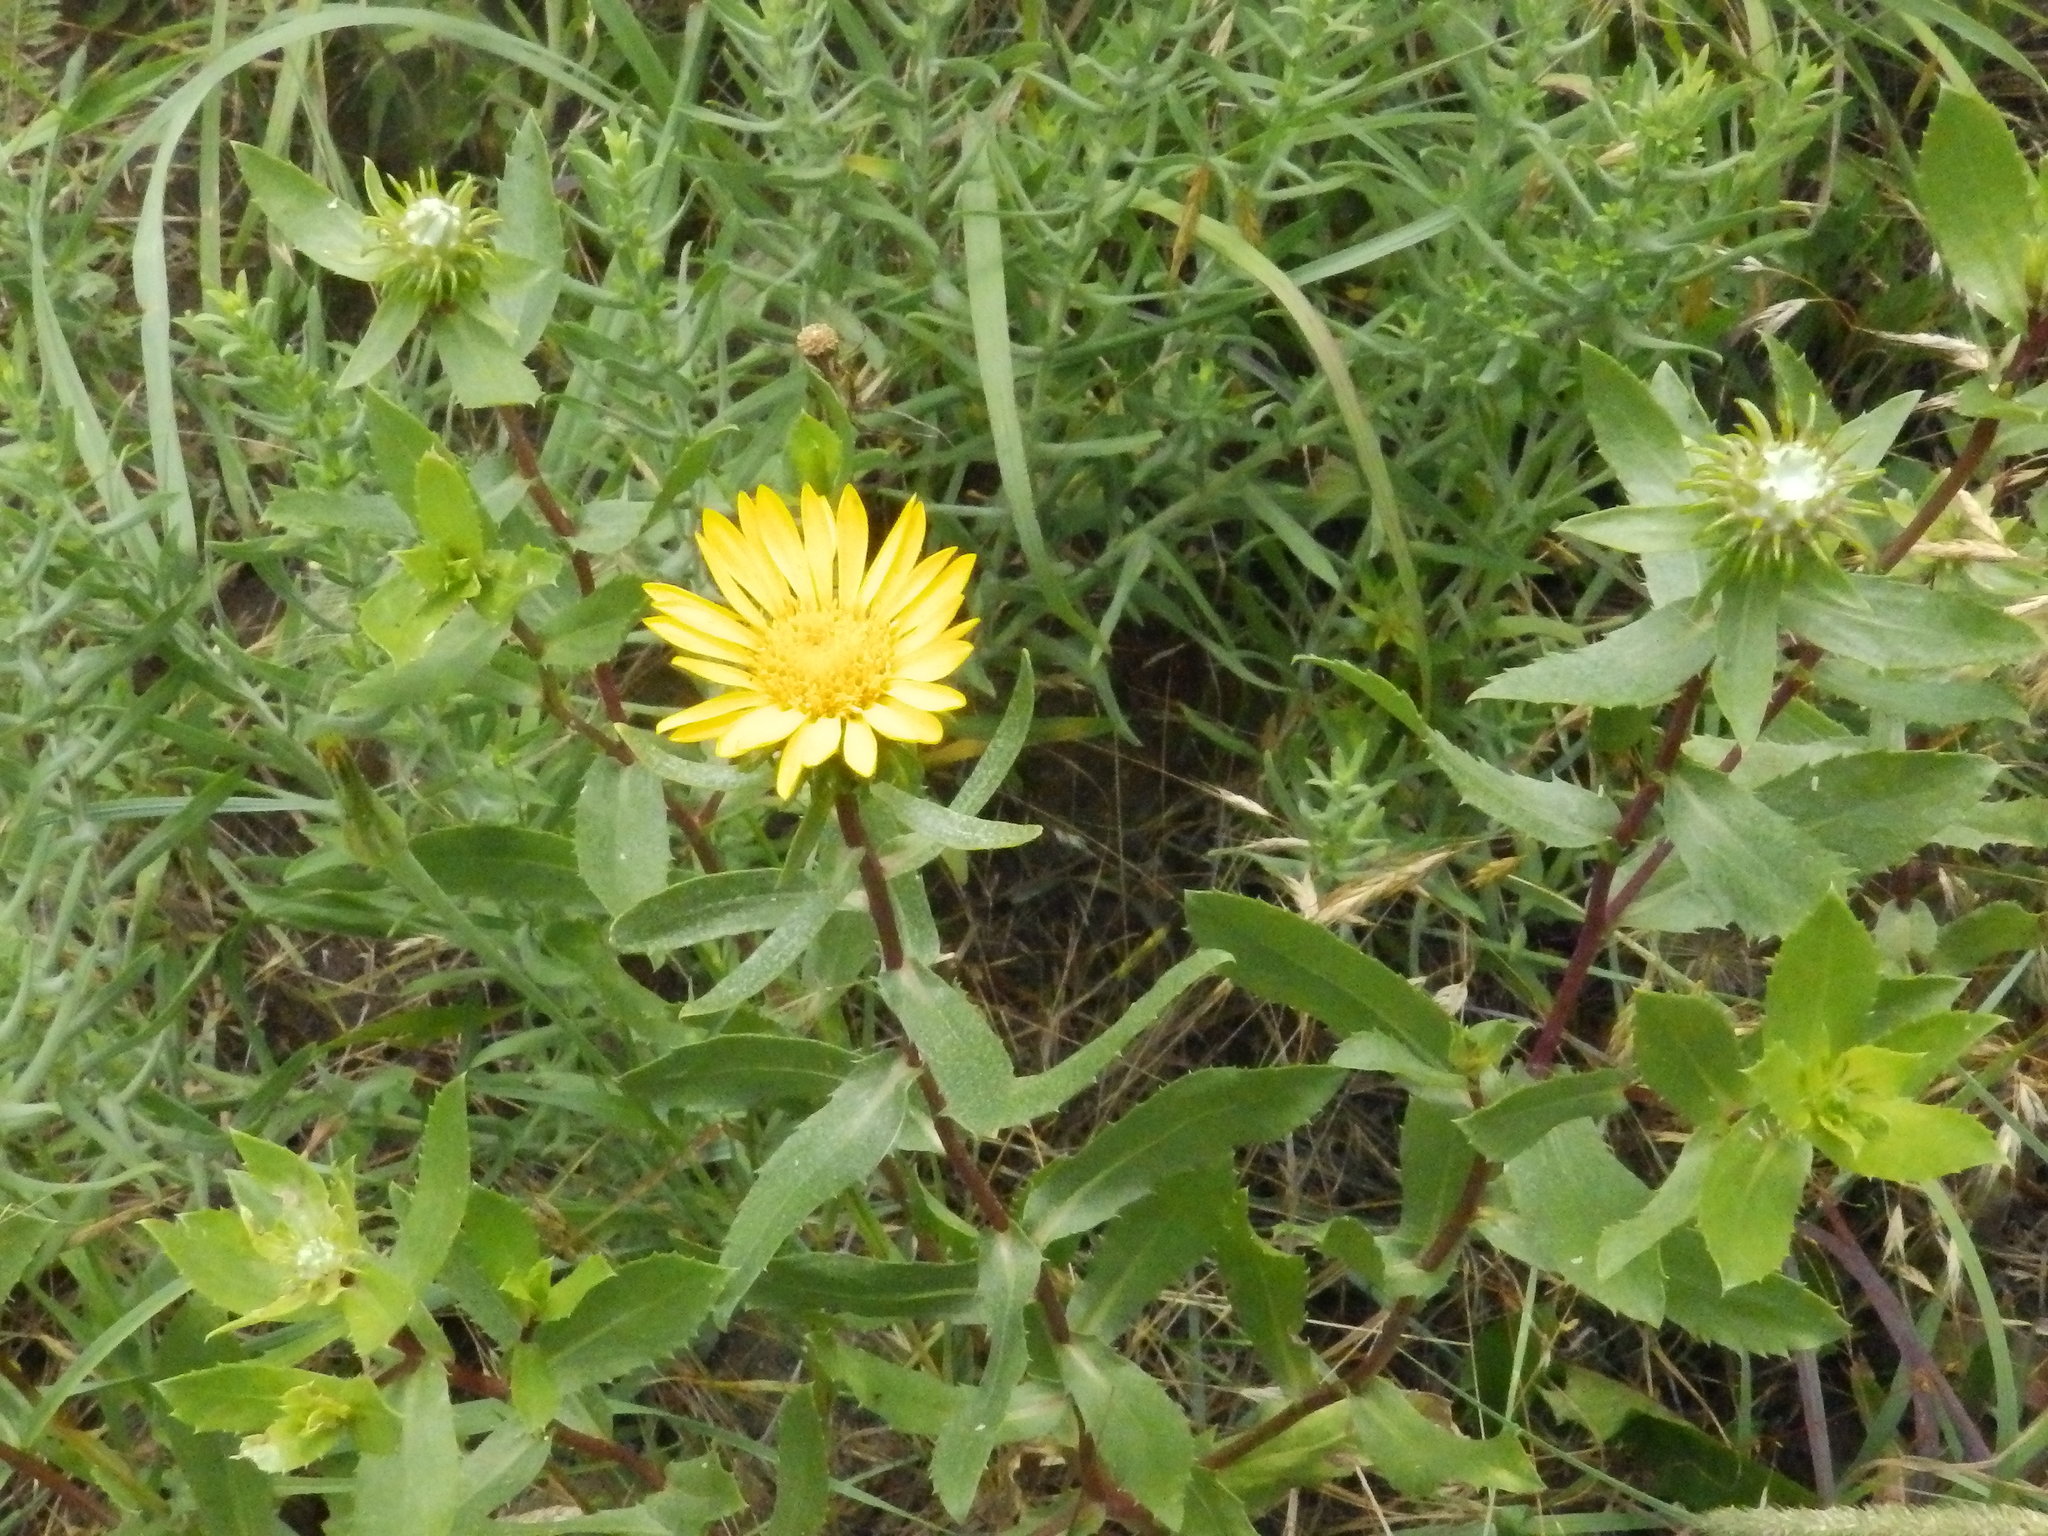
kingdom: Plantae
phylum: Tracheophyta
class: Magnoliopsida
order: Asterales
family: Asteraceae
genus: Grindelia
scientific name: Grindelia subalpina
